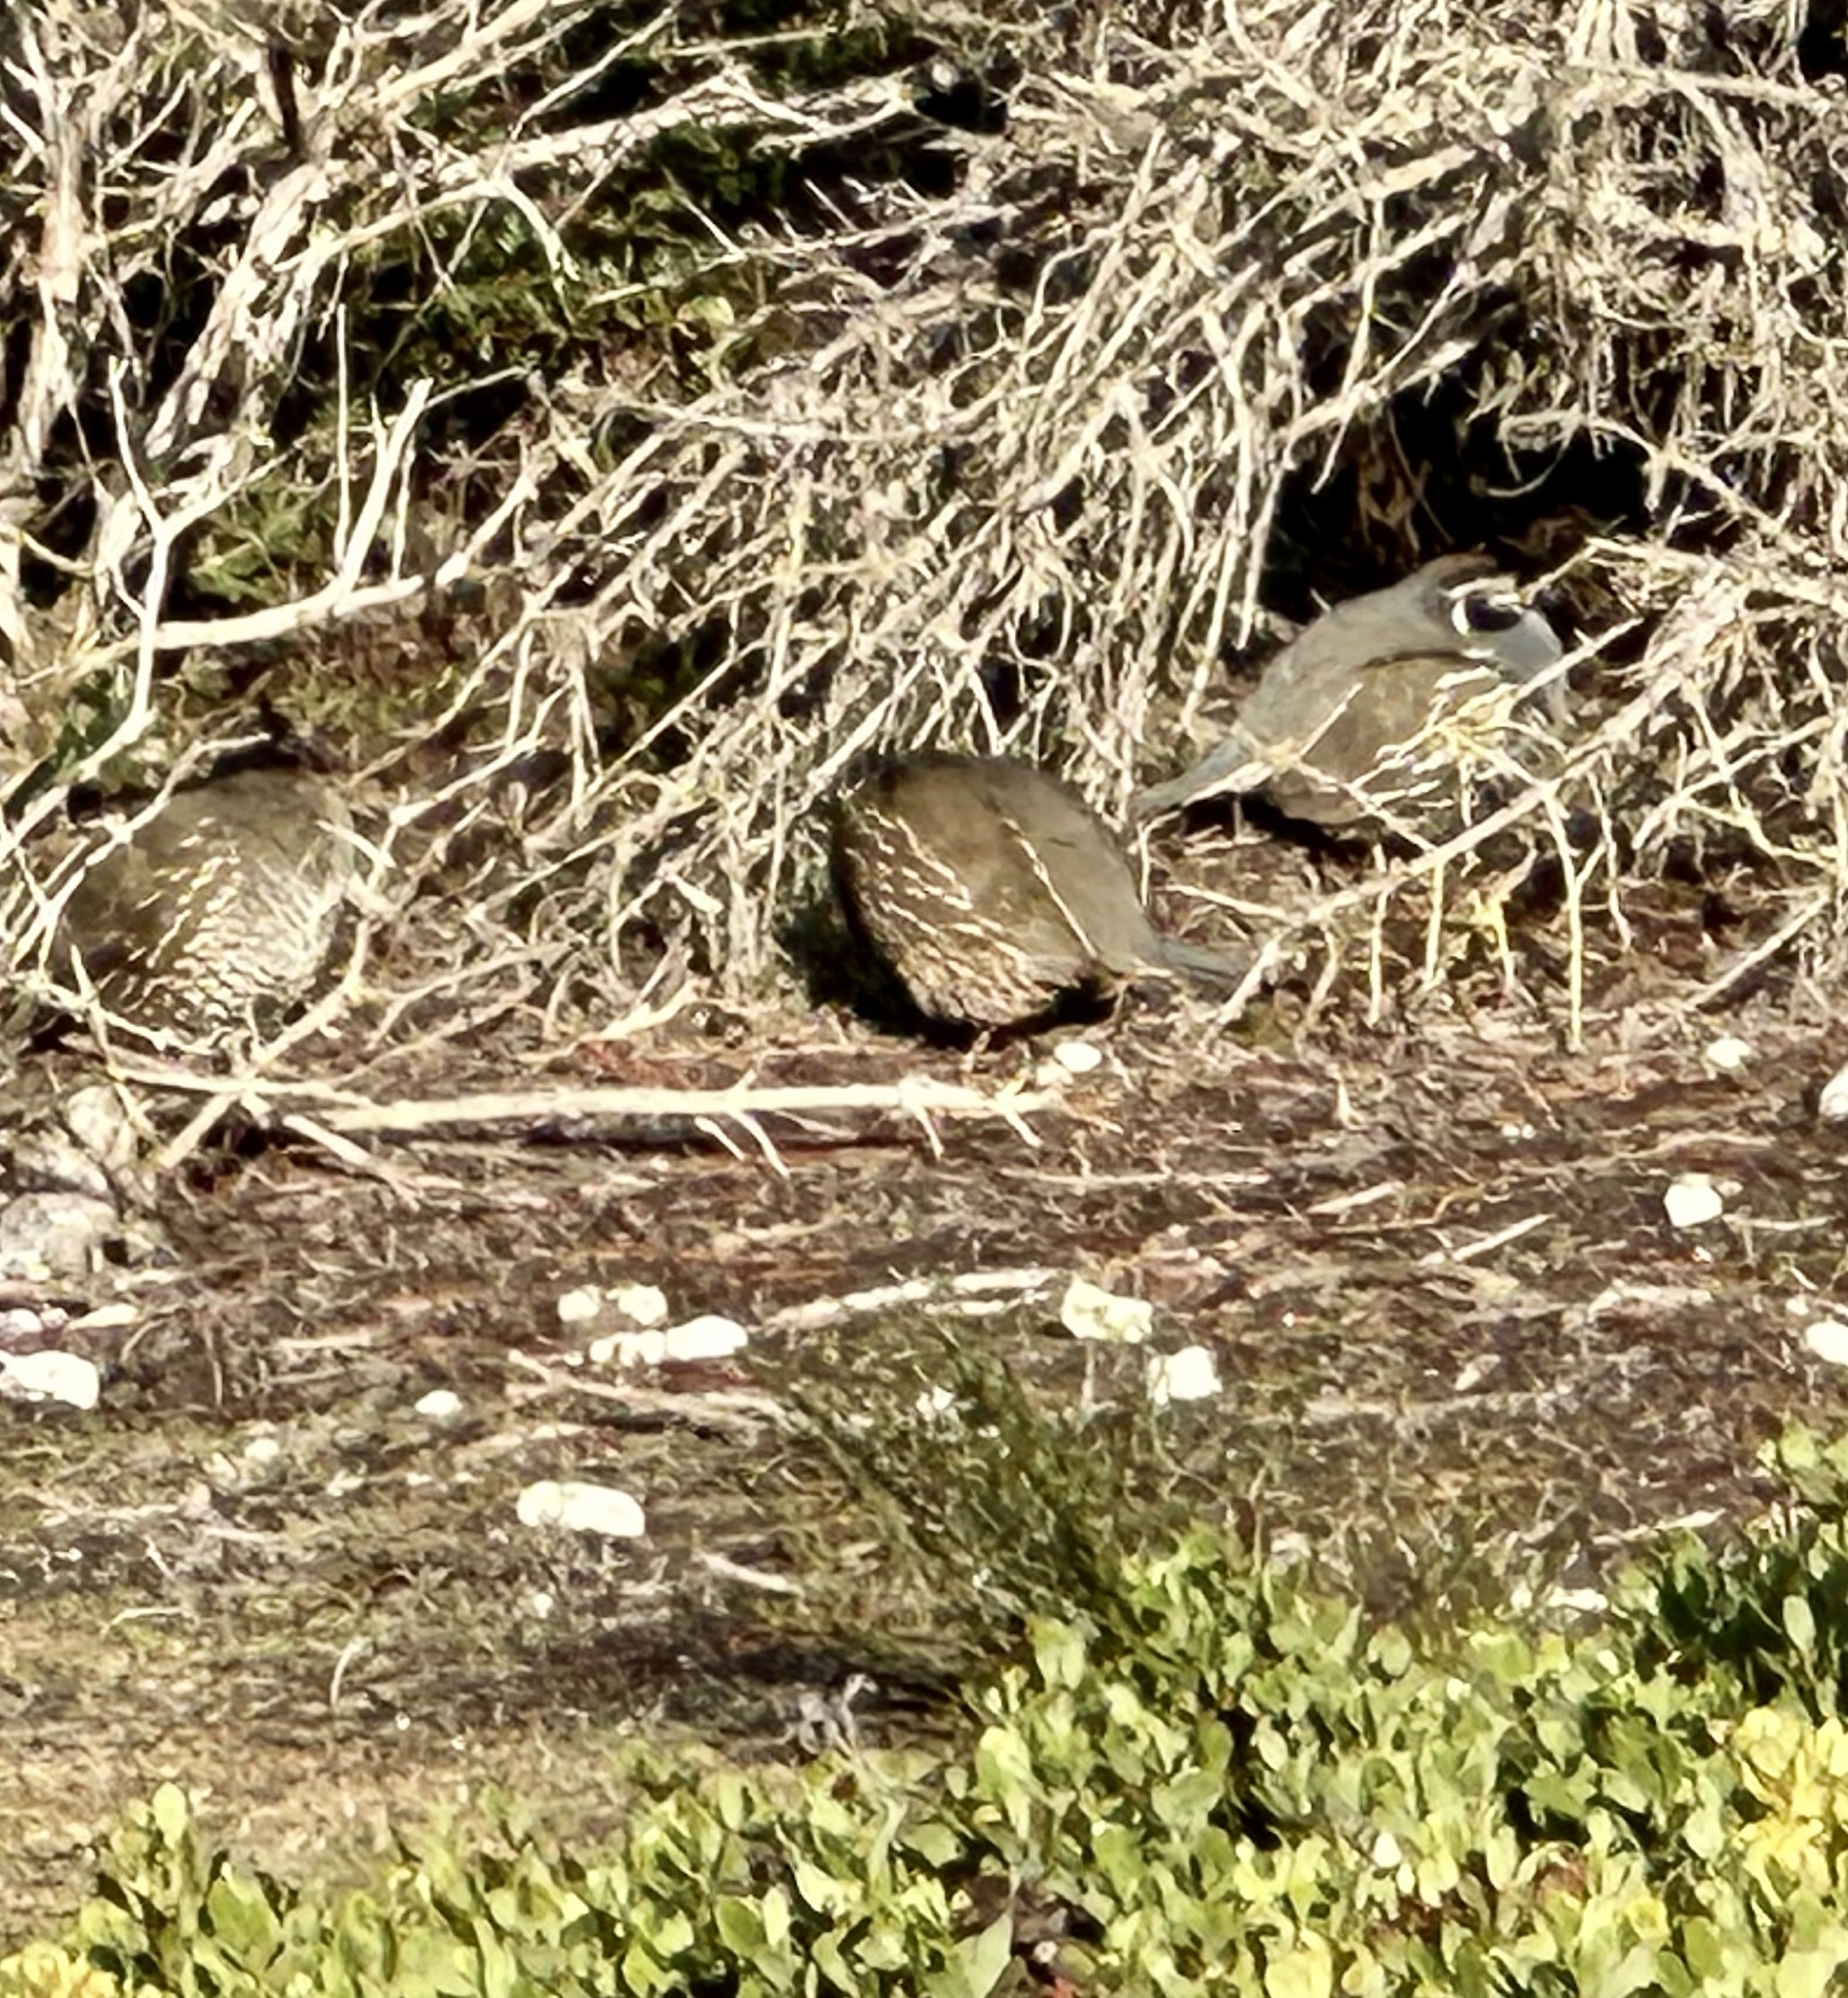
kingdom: Animalia
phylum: Chordata
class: Aves
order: Galliformes
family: Odontophoridae
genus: Callipepla
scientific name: Callipepla californica
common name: California quail
